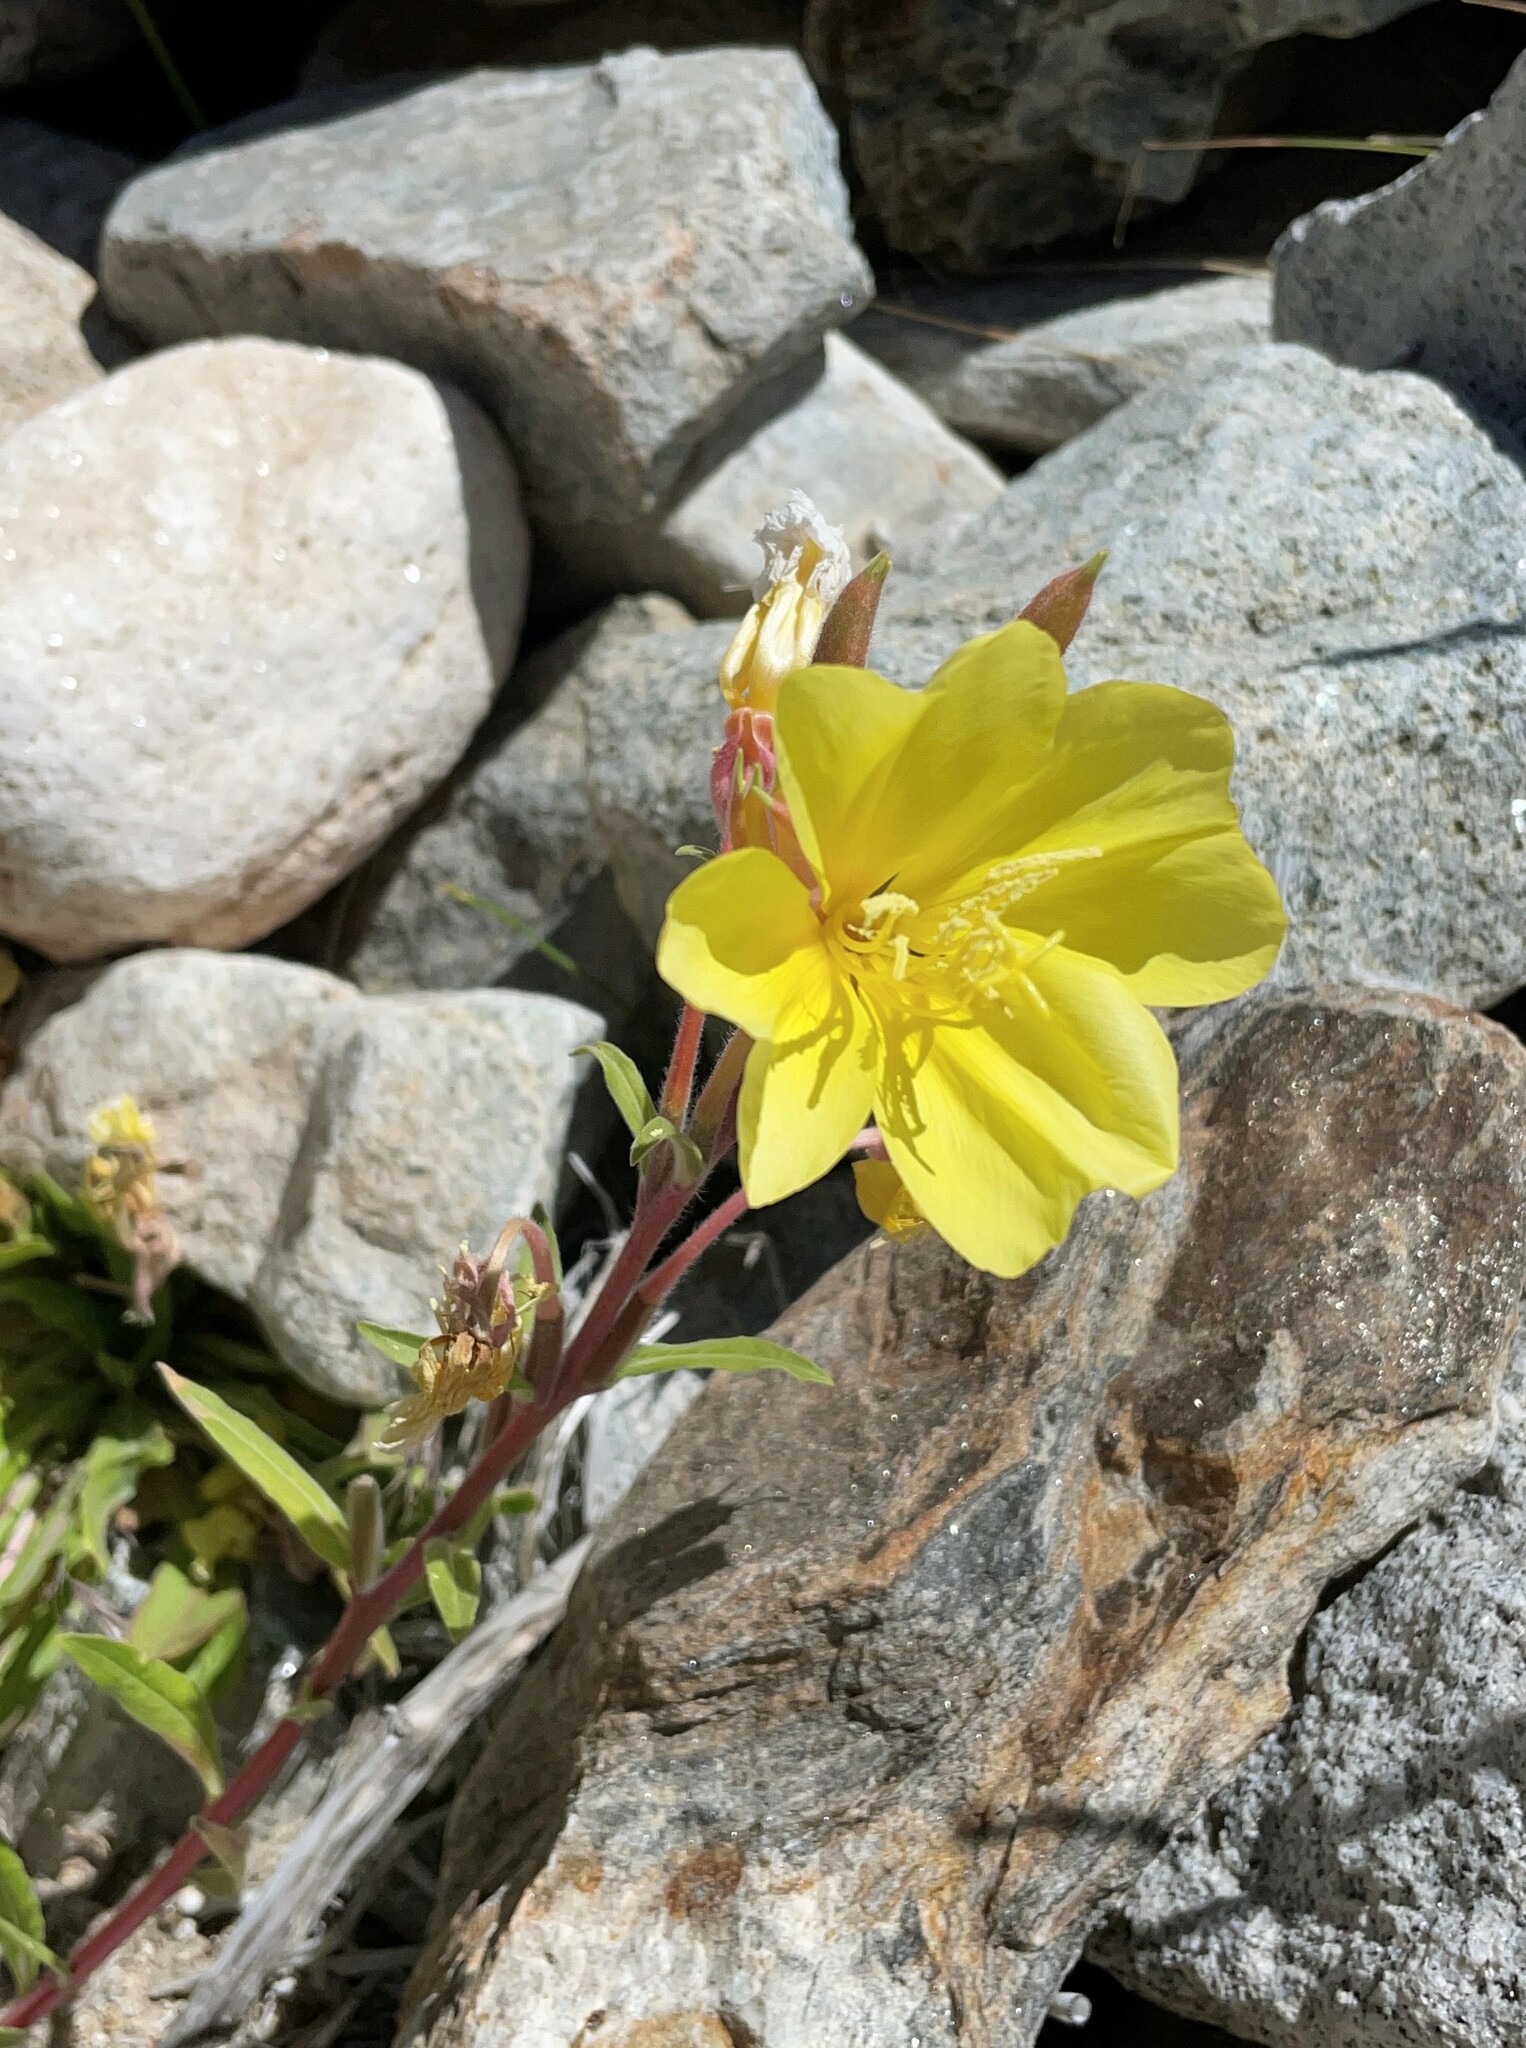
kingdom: Plantae
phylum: Tracheophyta
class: Magnoliopsida
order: Myrtales
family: Onagraceae
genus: Oenothera
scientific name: Oenothera elata
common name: Hooker's evening-primrose
